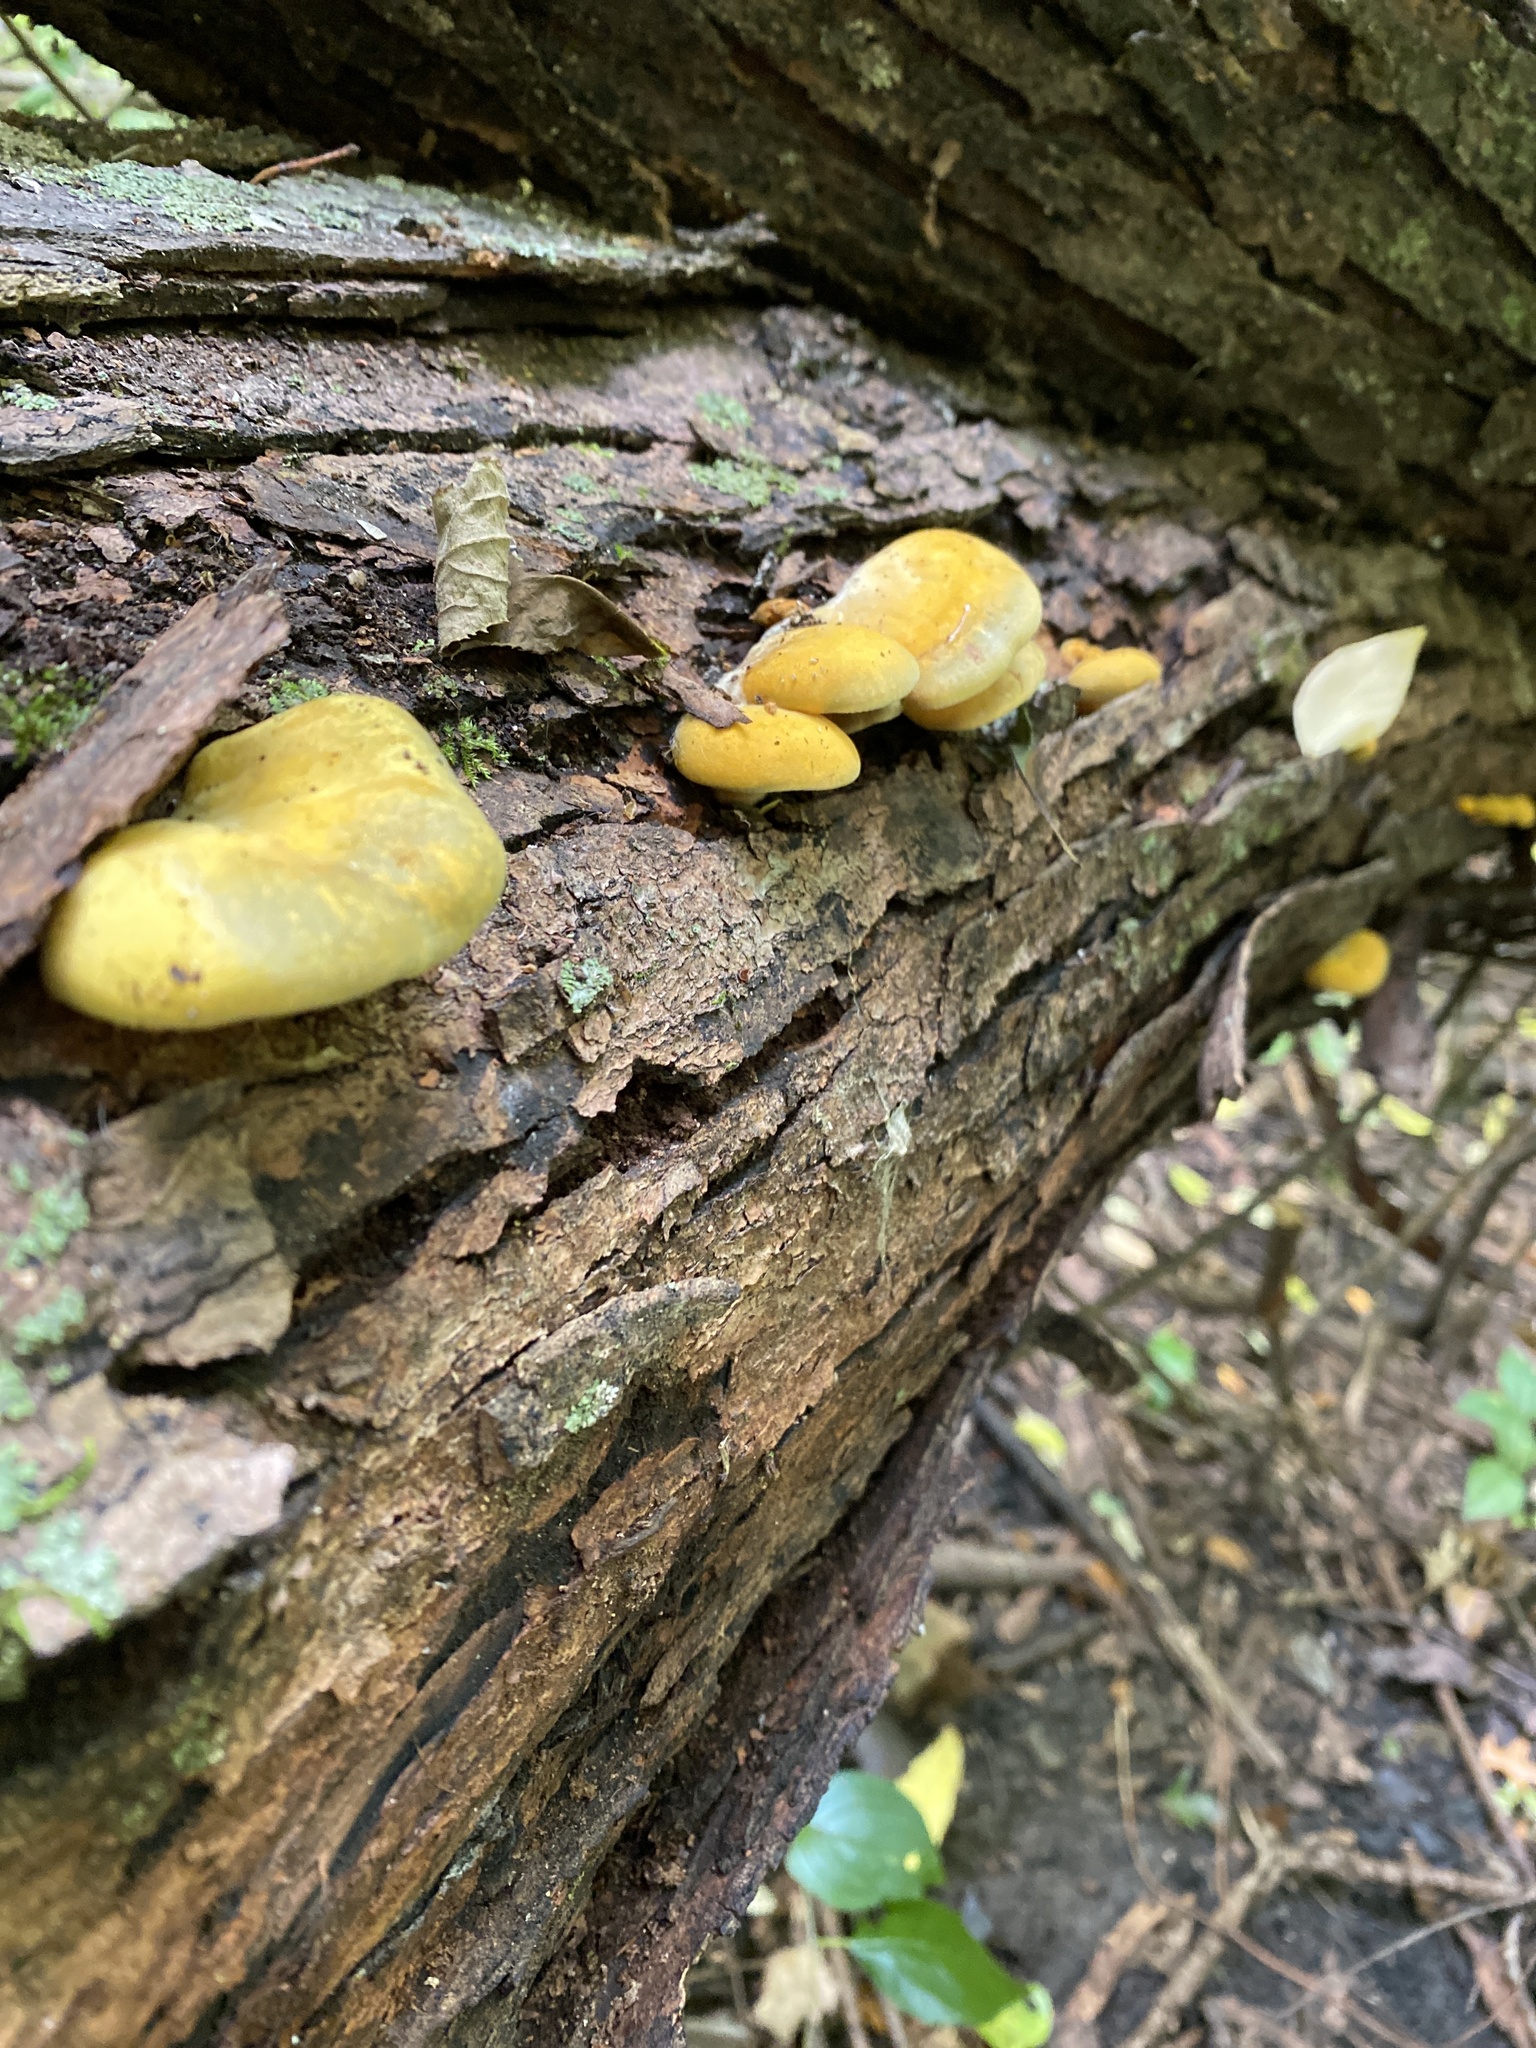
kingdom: Fungi
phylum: Basidiomycota
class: Agaricomycetes
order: Agaricales
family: Sarcomyxaceae
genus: Sarcomyxa
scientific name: Sarcomyxa serotina
